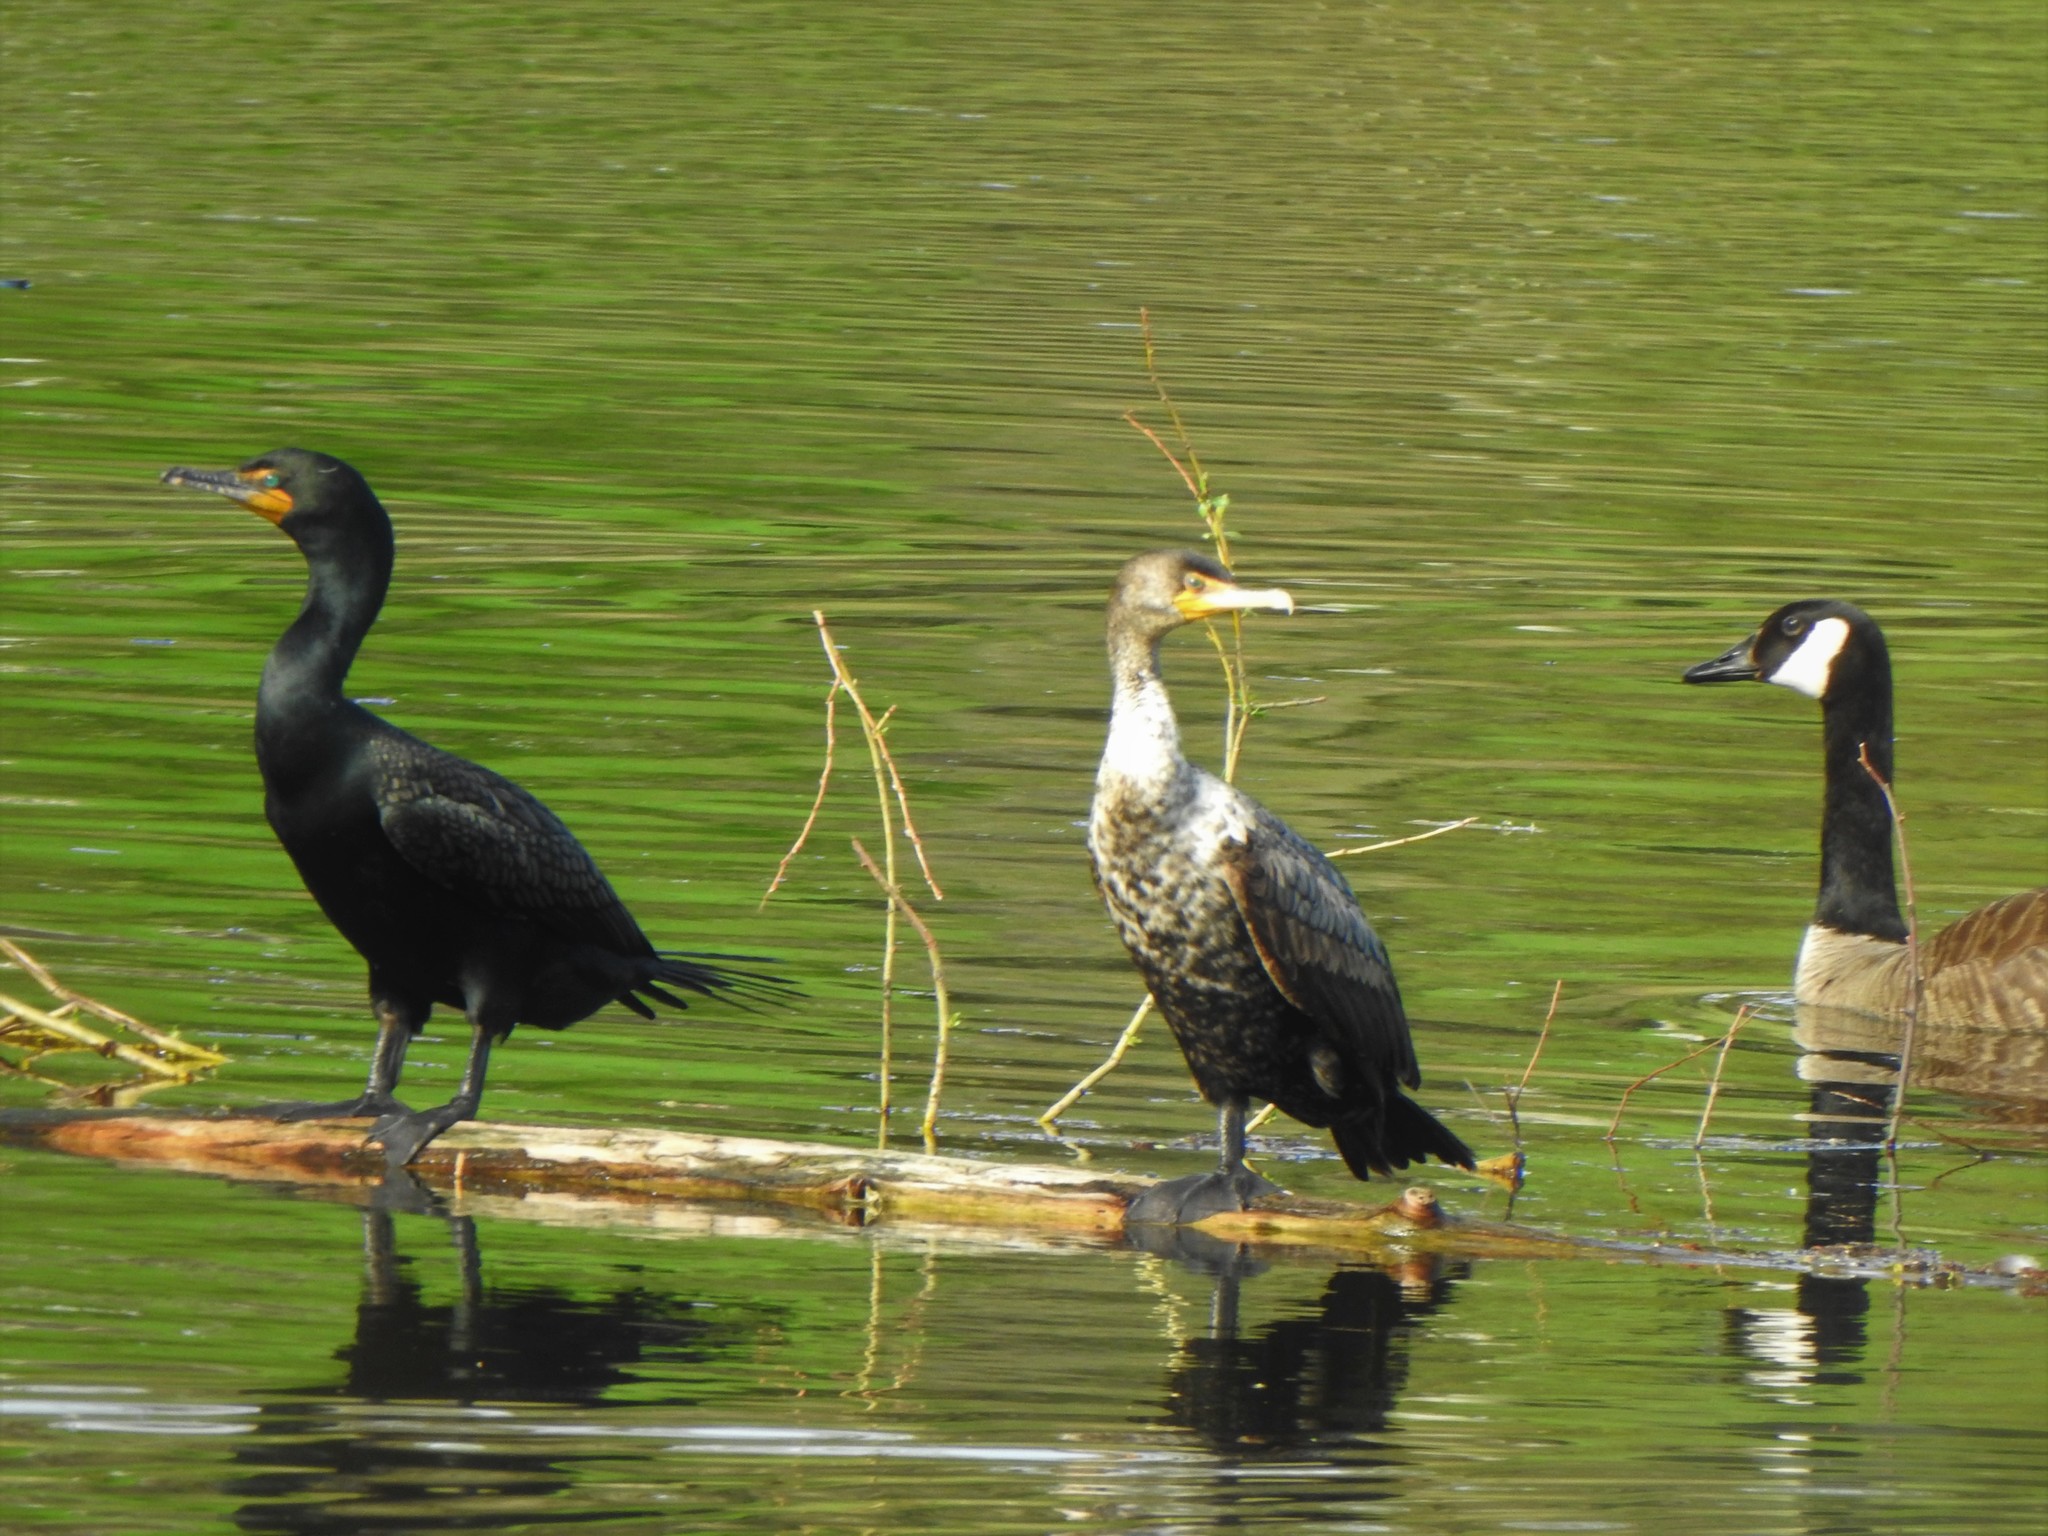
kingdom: Animalia
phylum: Chordata
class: Aves
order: Suliformes
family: Phalacrocoracidae
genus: Phalacrocorax
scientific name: Phalacrocorax auritus
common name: Double-crested cormorant
